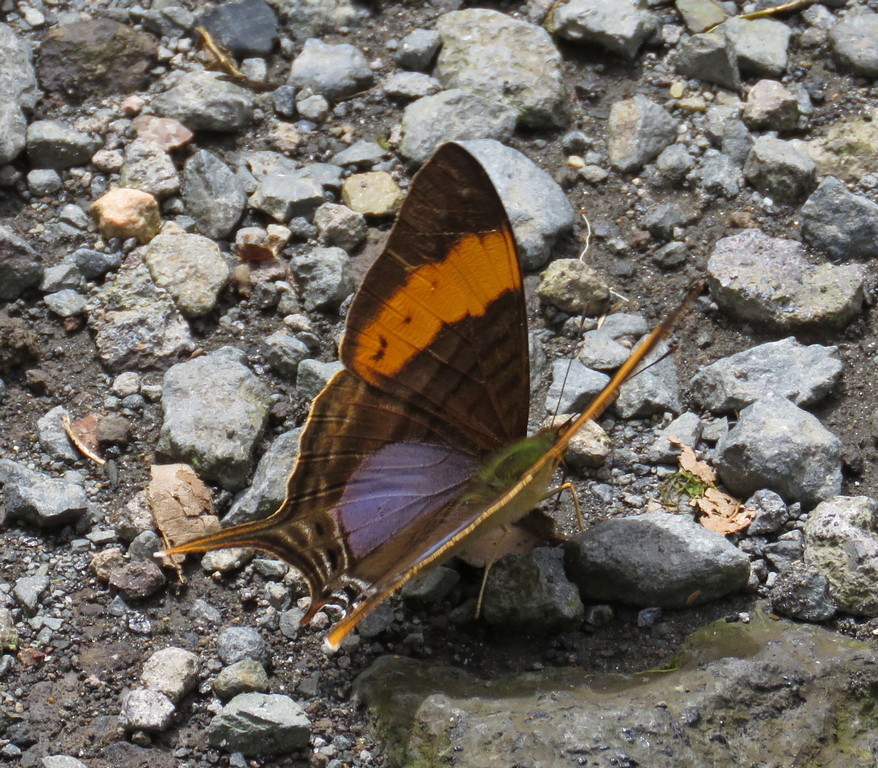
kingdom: Animalia
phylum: Arthropoda
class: Insecta
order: Lepidoptera
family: Nymphalidae
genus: Marpesia
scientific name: Marpesia corinna
